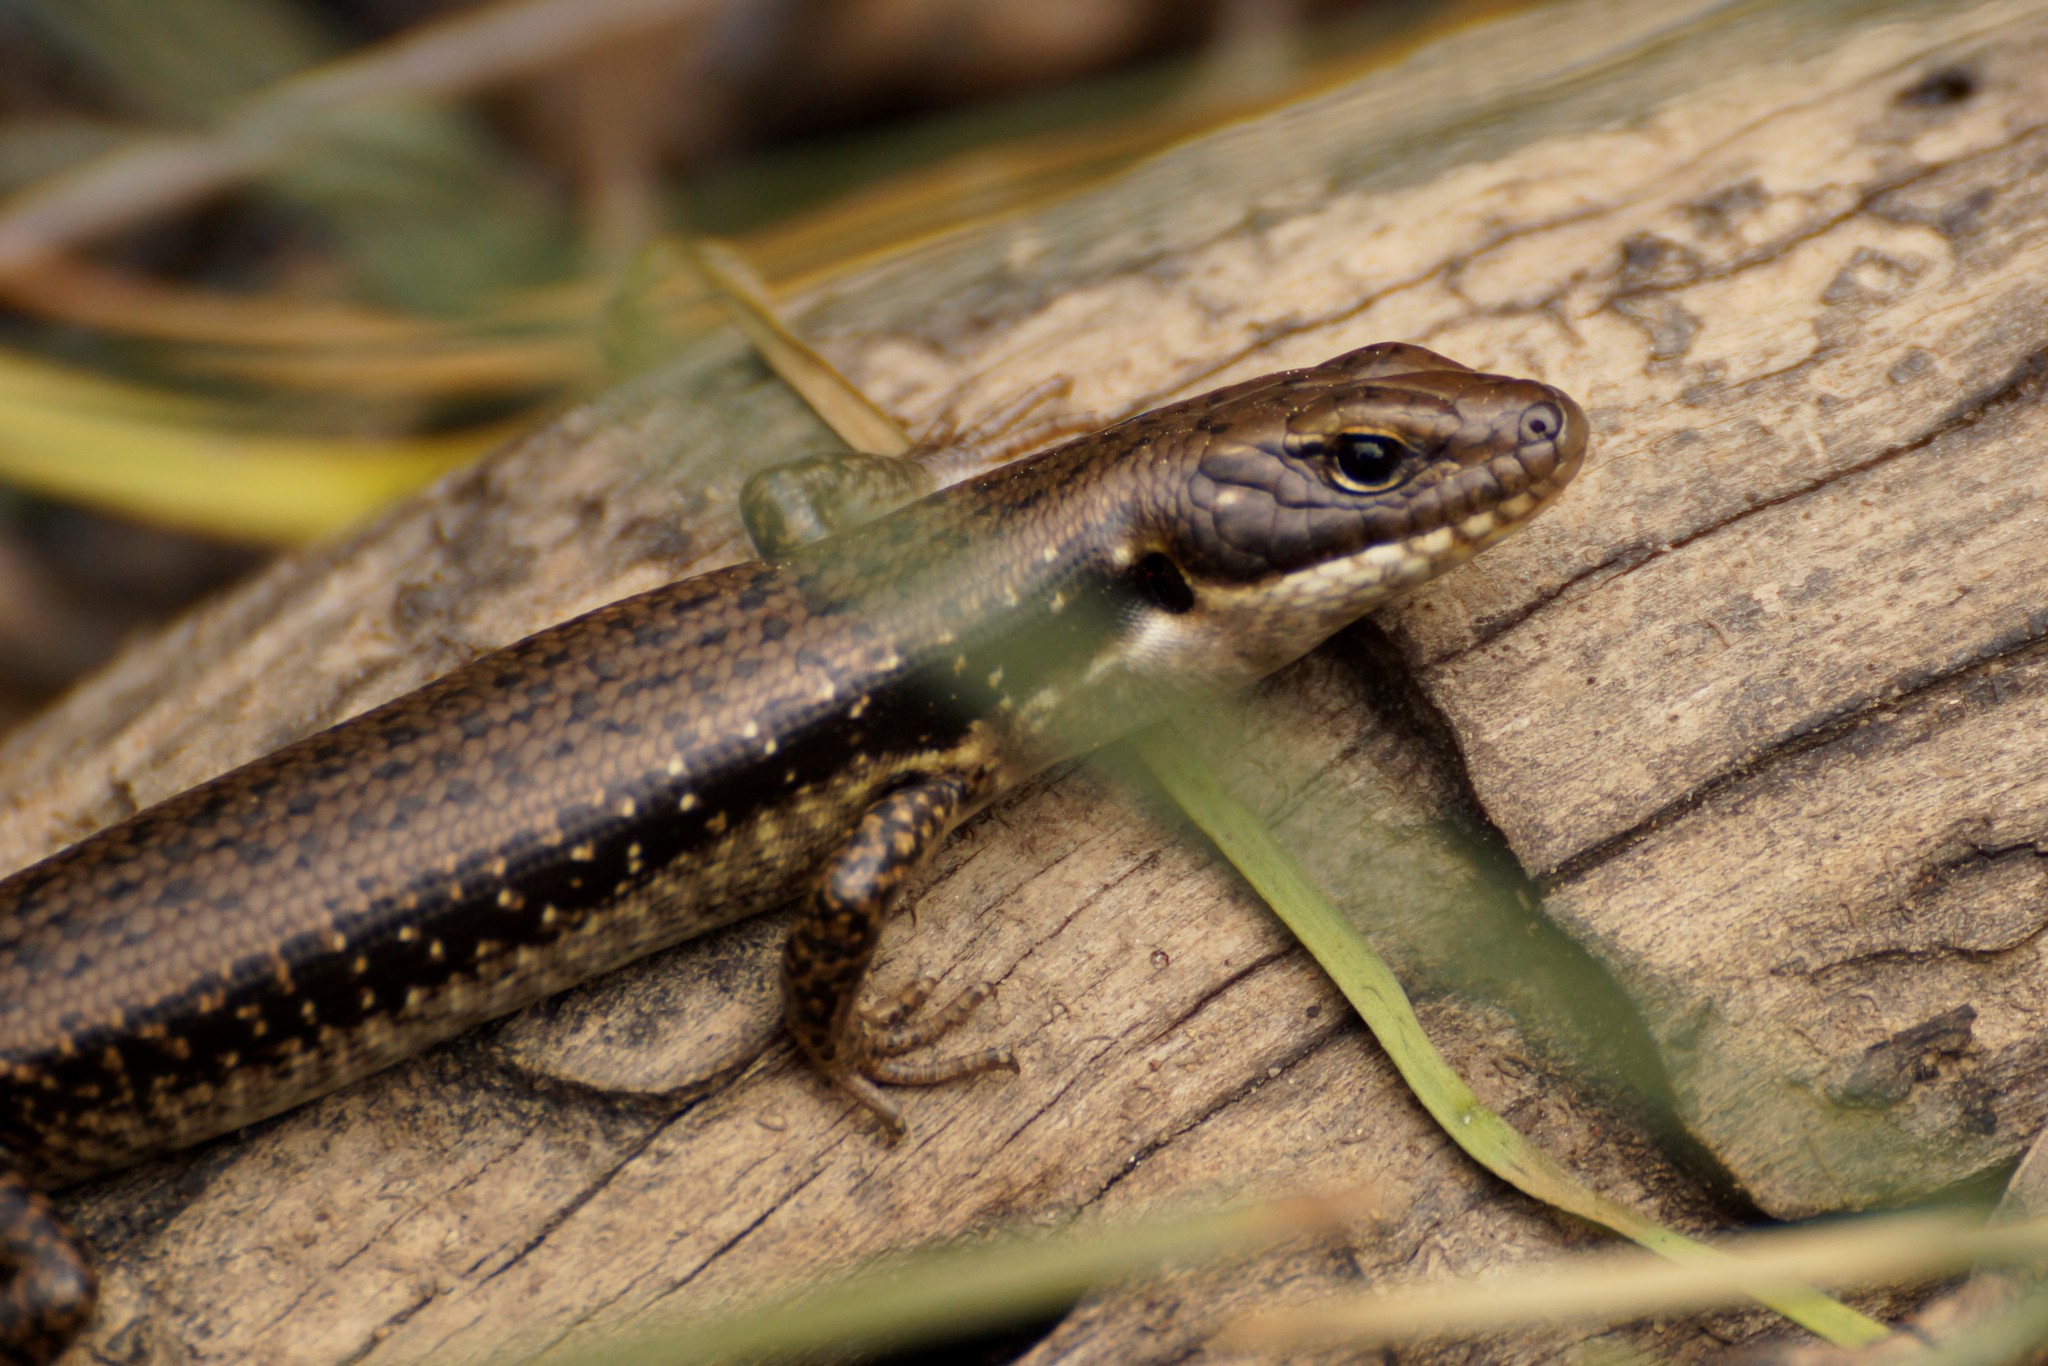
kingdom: Animalia
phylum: Chordata
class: Squamata
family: Scincidae
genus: Eulamprus
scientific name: Eulamprus tympanum
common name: Cool-temperate water-skink
